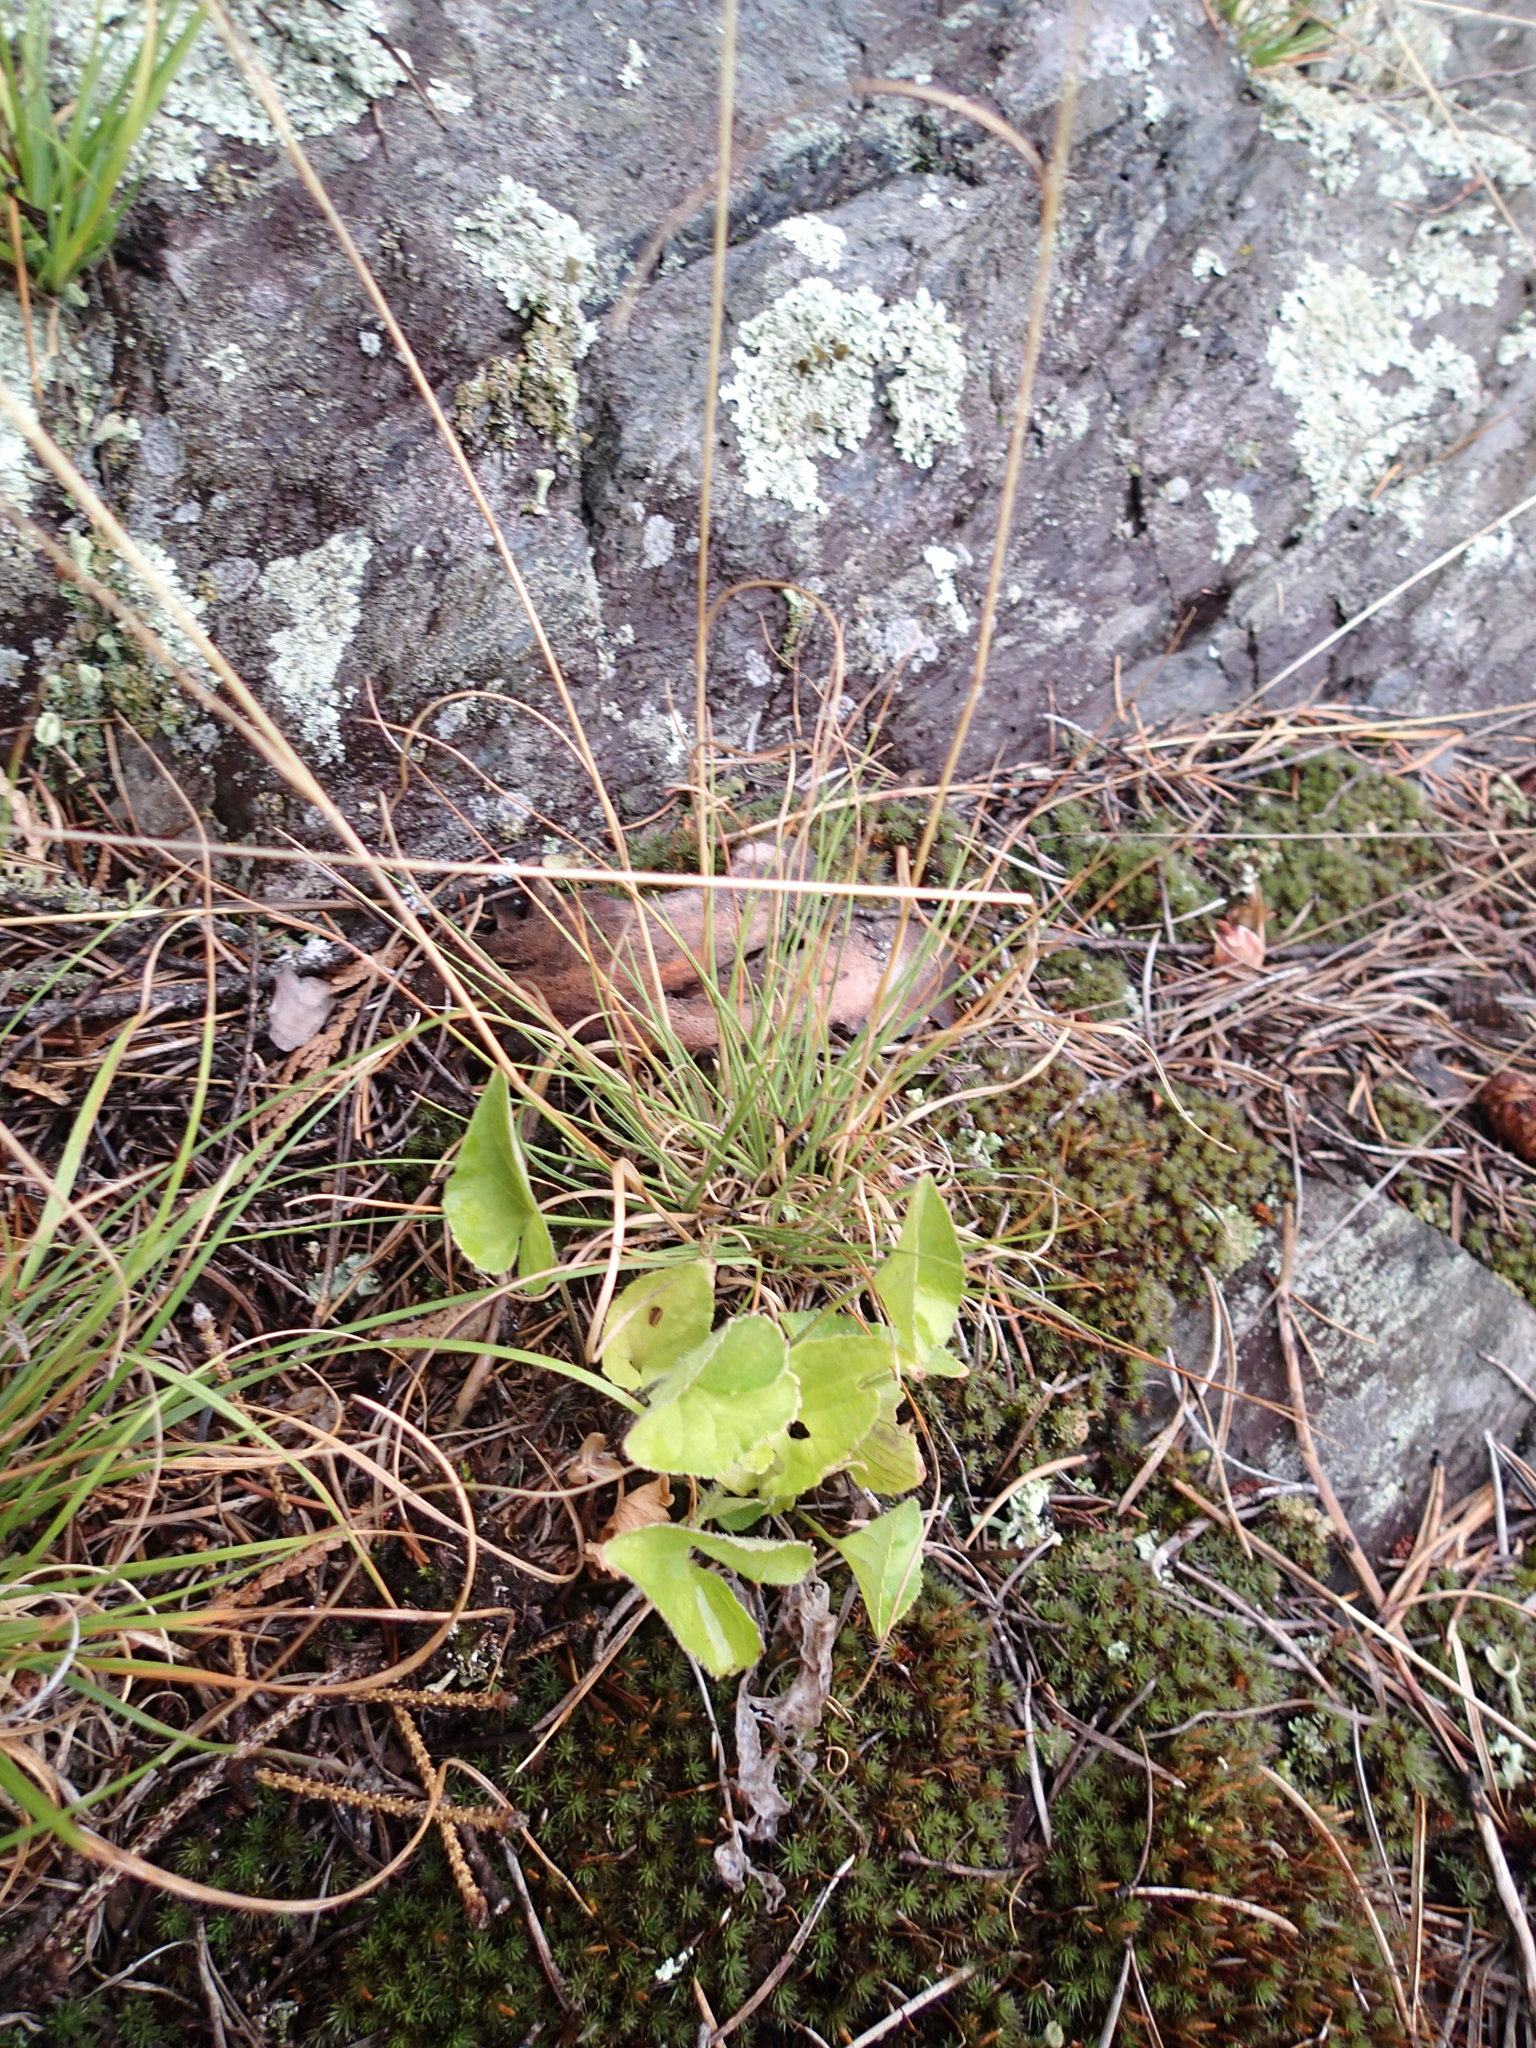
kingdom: Plantae
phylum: Tracheophyta
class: Magnoliopsida
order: Malpighiales
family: Violaceae
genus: Viola
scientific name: Viola novae-angliae
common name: New england blue violet
